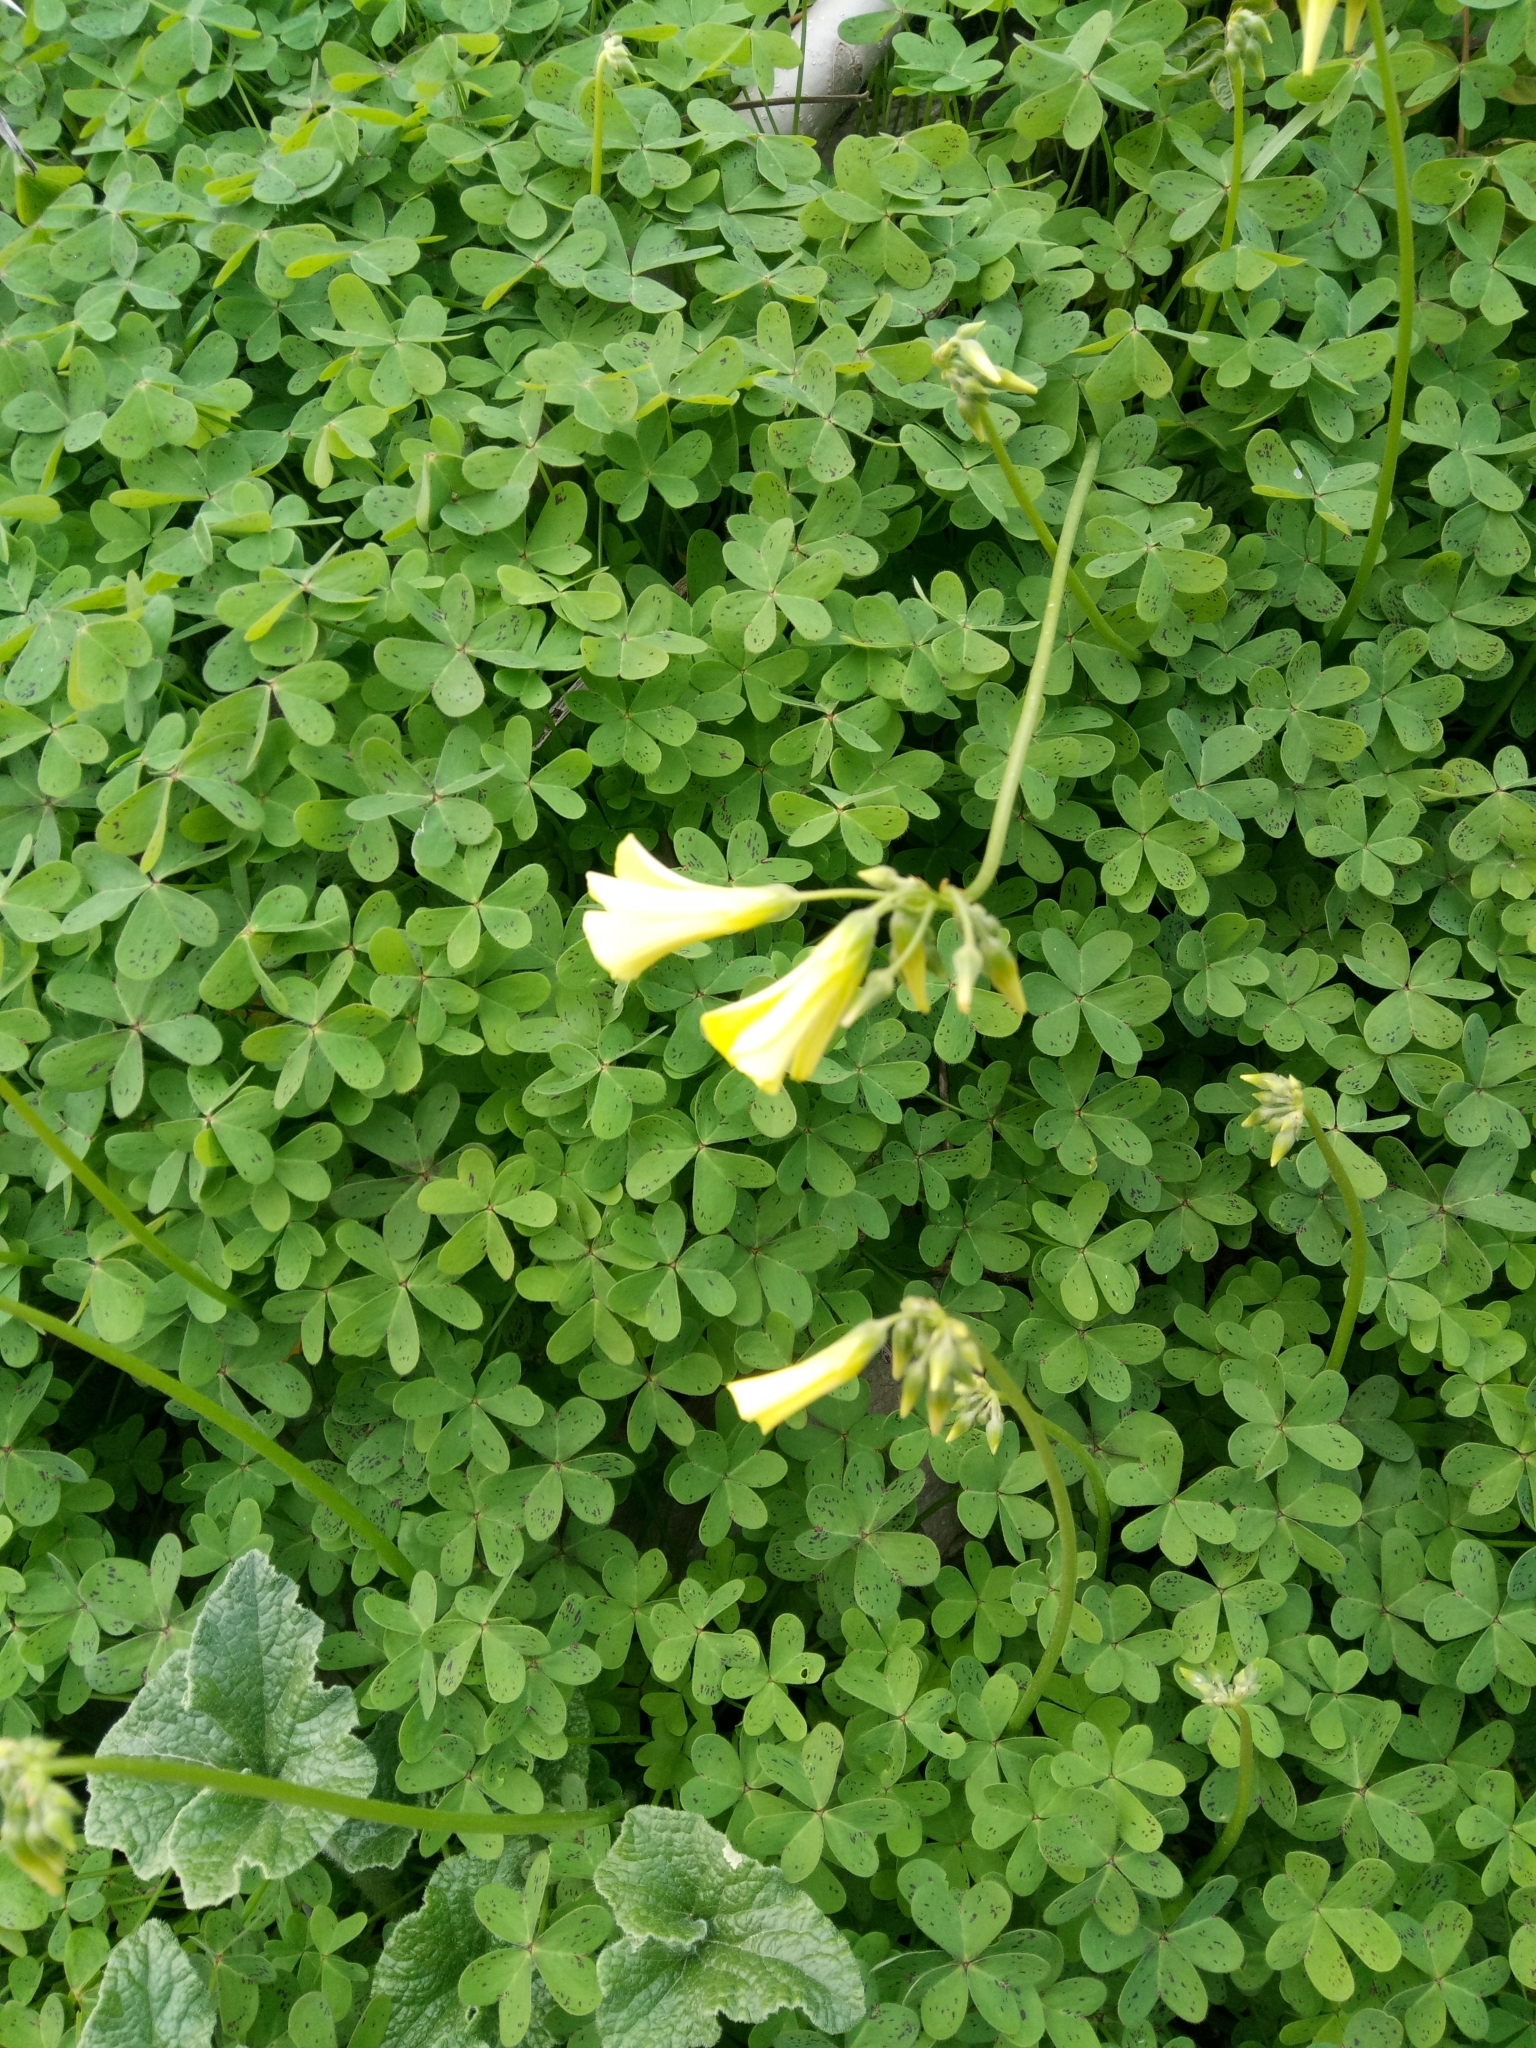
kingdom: Plantae
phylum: Tracheophyta
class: Magnoliopsida
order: Oxalidales
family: Oxalidaceae
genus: Oxalis
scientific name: Oxalis pes-caprae
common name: Bermuda-buttercup
